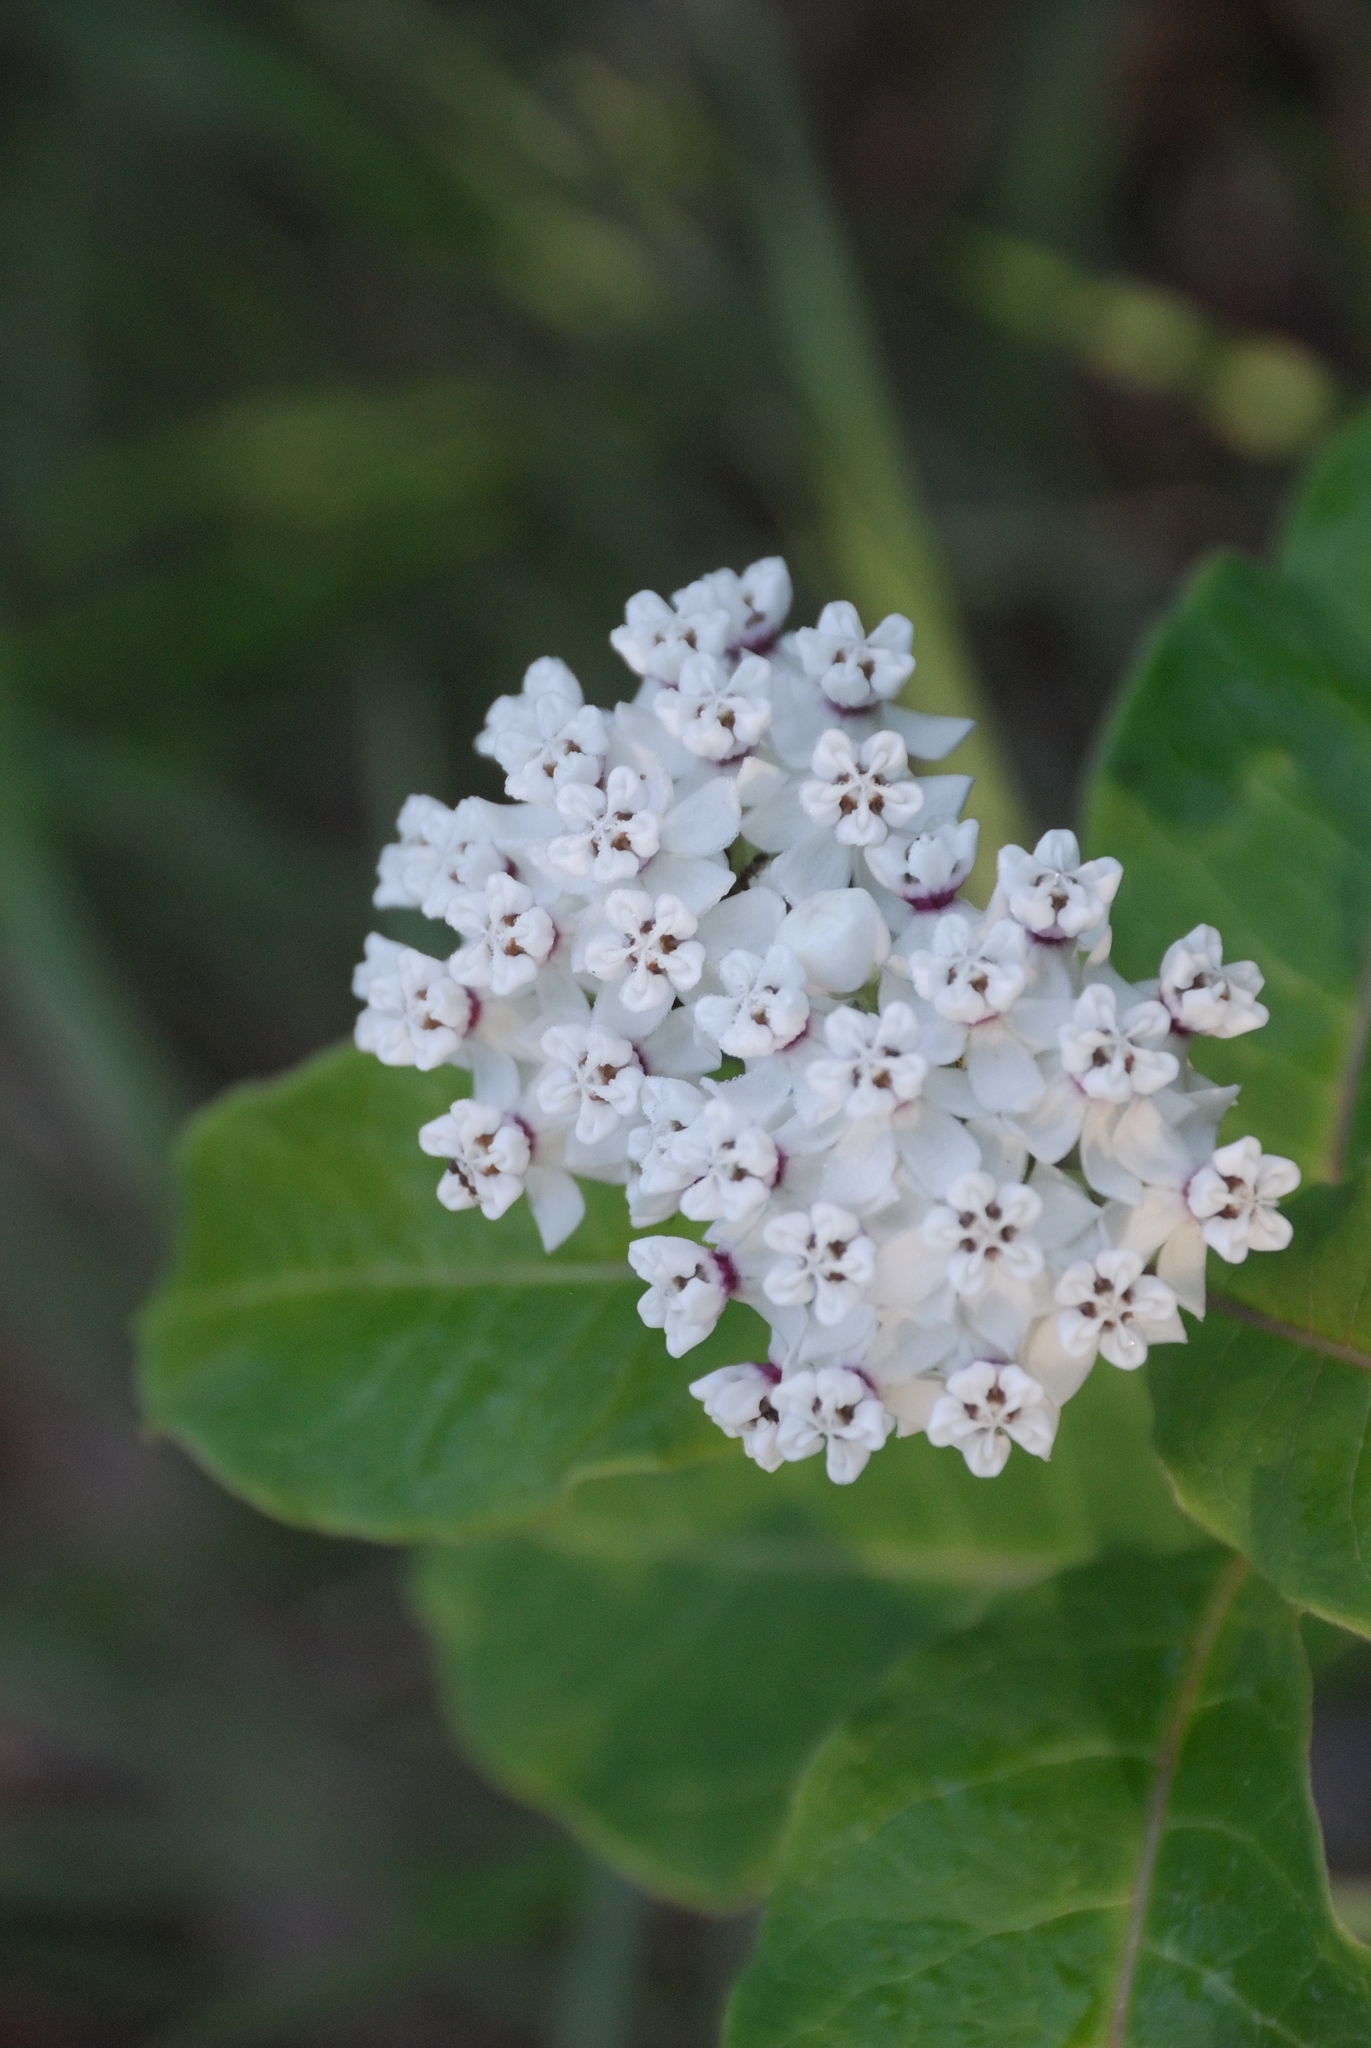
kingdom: Plantae
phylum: Tracheophyta
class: Magnoliopsida
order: Gentianales
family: Apocynaceae
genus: Asclepias
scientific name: Asclepias variegata
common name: Variegated milkweed
